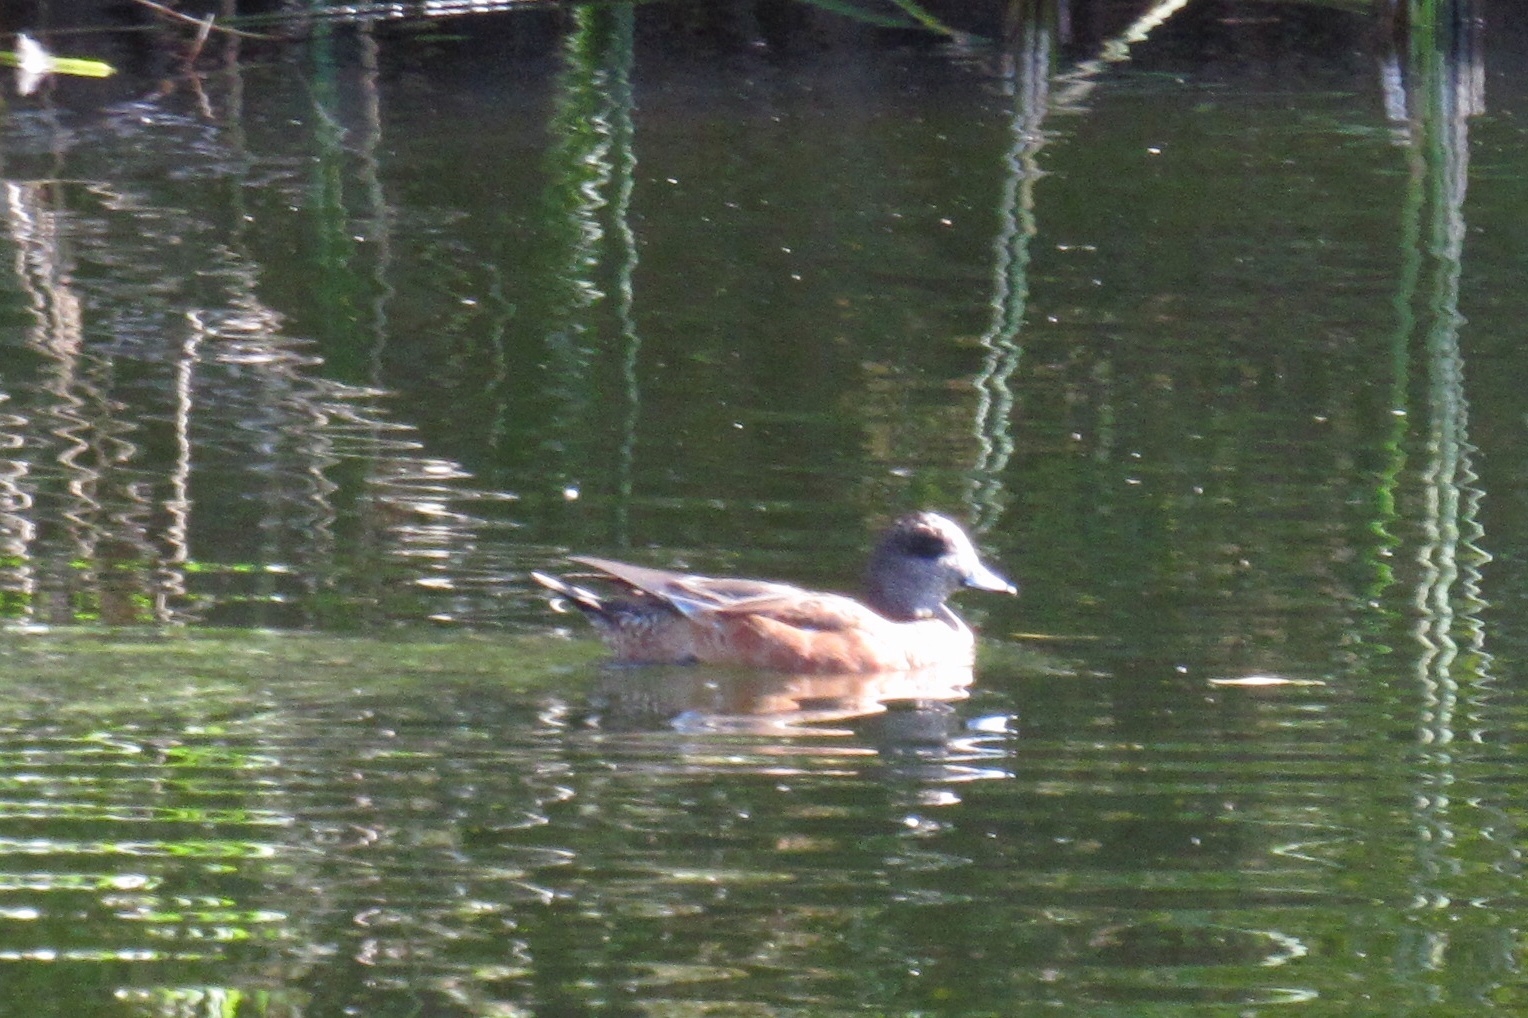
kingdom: Animalia
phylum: Chordata
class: Aves
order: Anseriformes
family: Anatidae
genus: Mareca
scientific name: Mareca americana
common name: American wigeon
